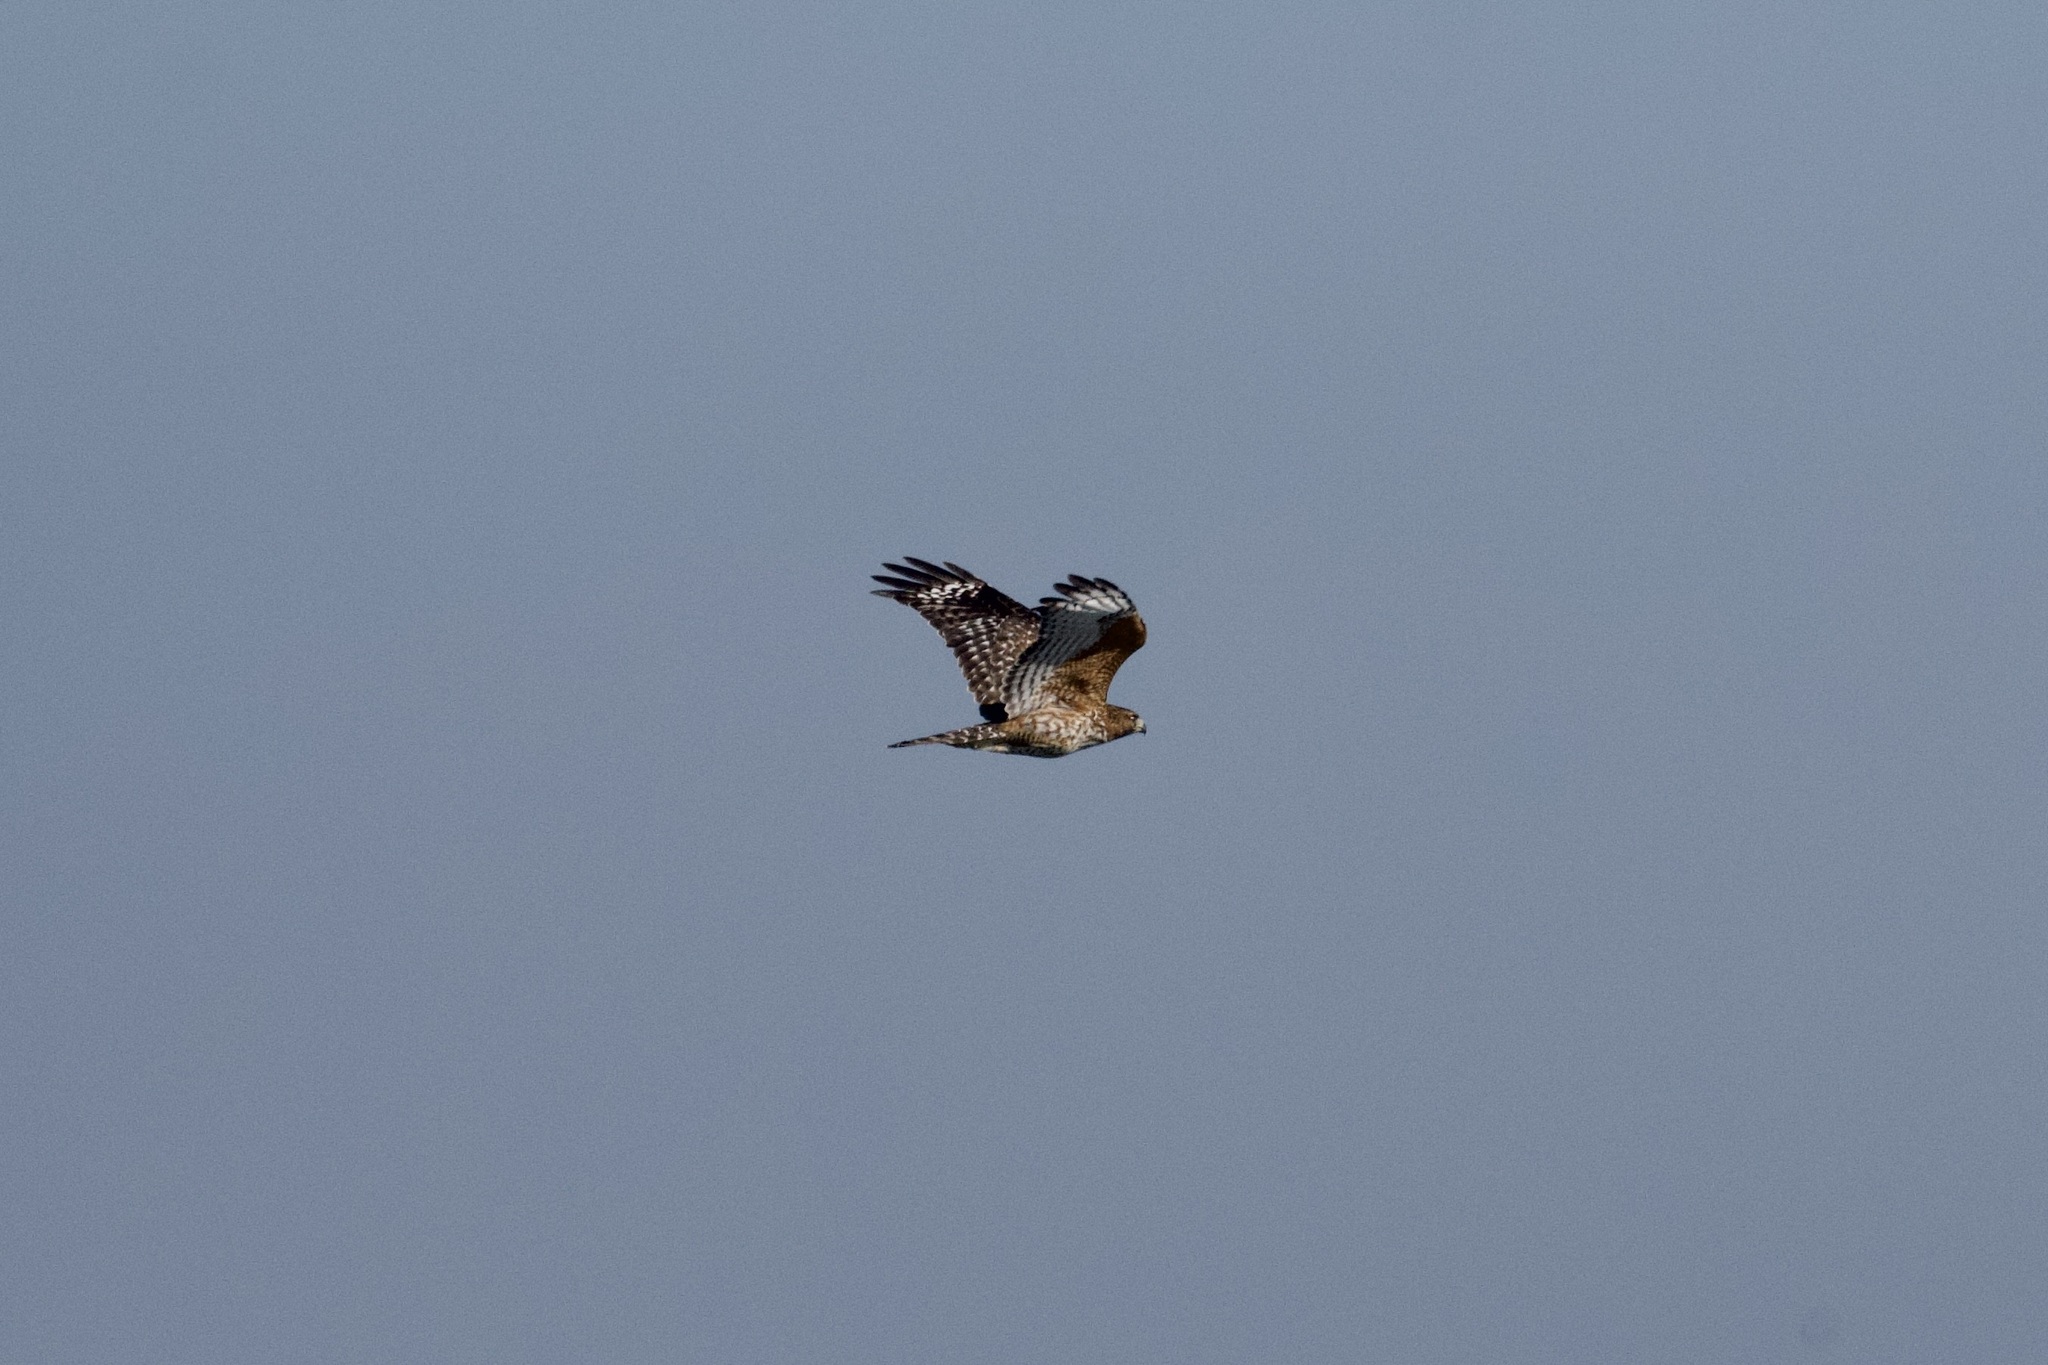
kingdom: Animalia
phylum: Chordata
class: Aves
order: Accipitriformes
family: Accipitridae
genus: Buteo
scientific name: Buteo lineatus
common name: Red-shouldered hawk
